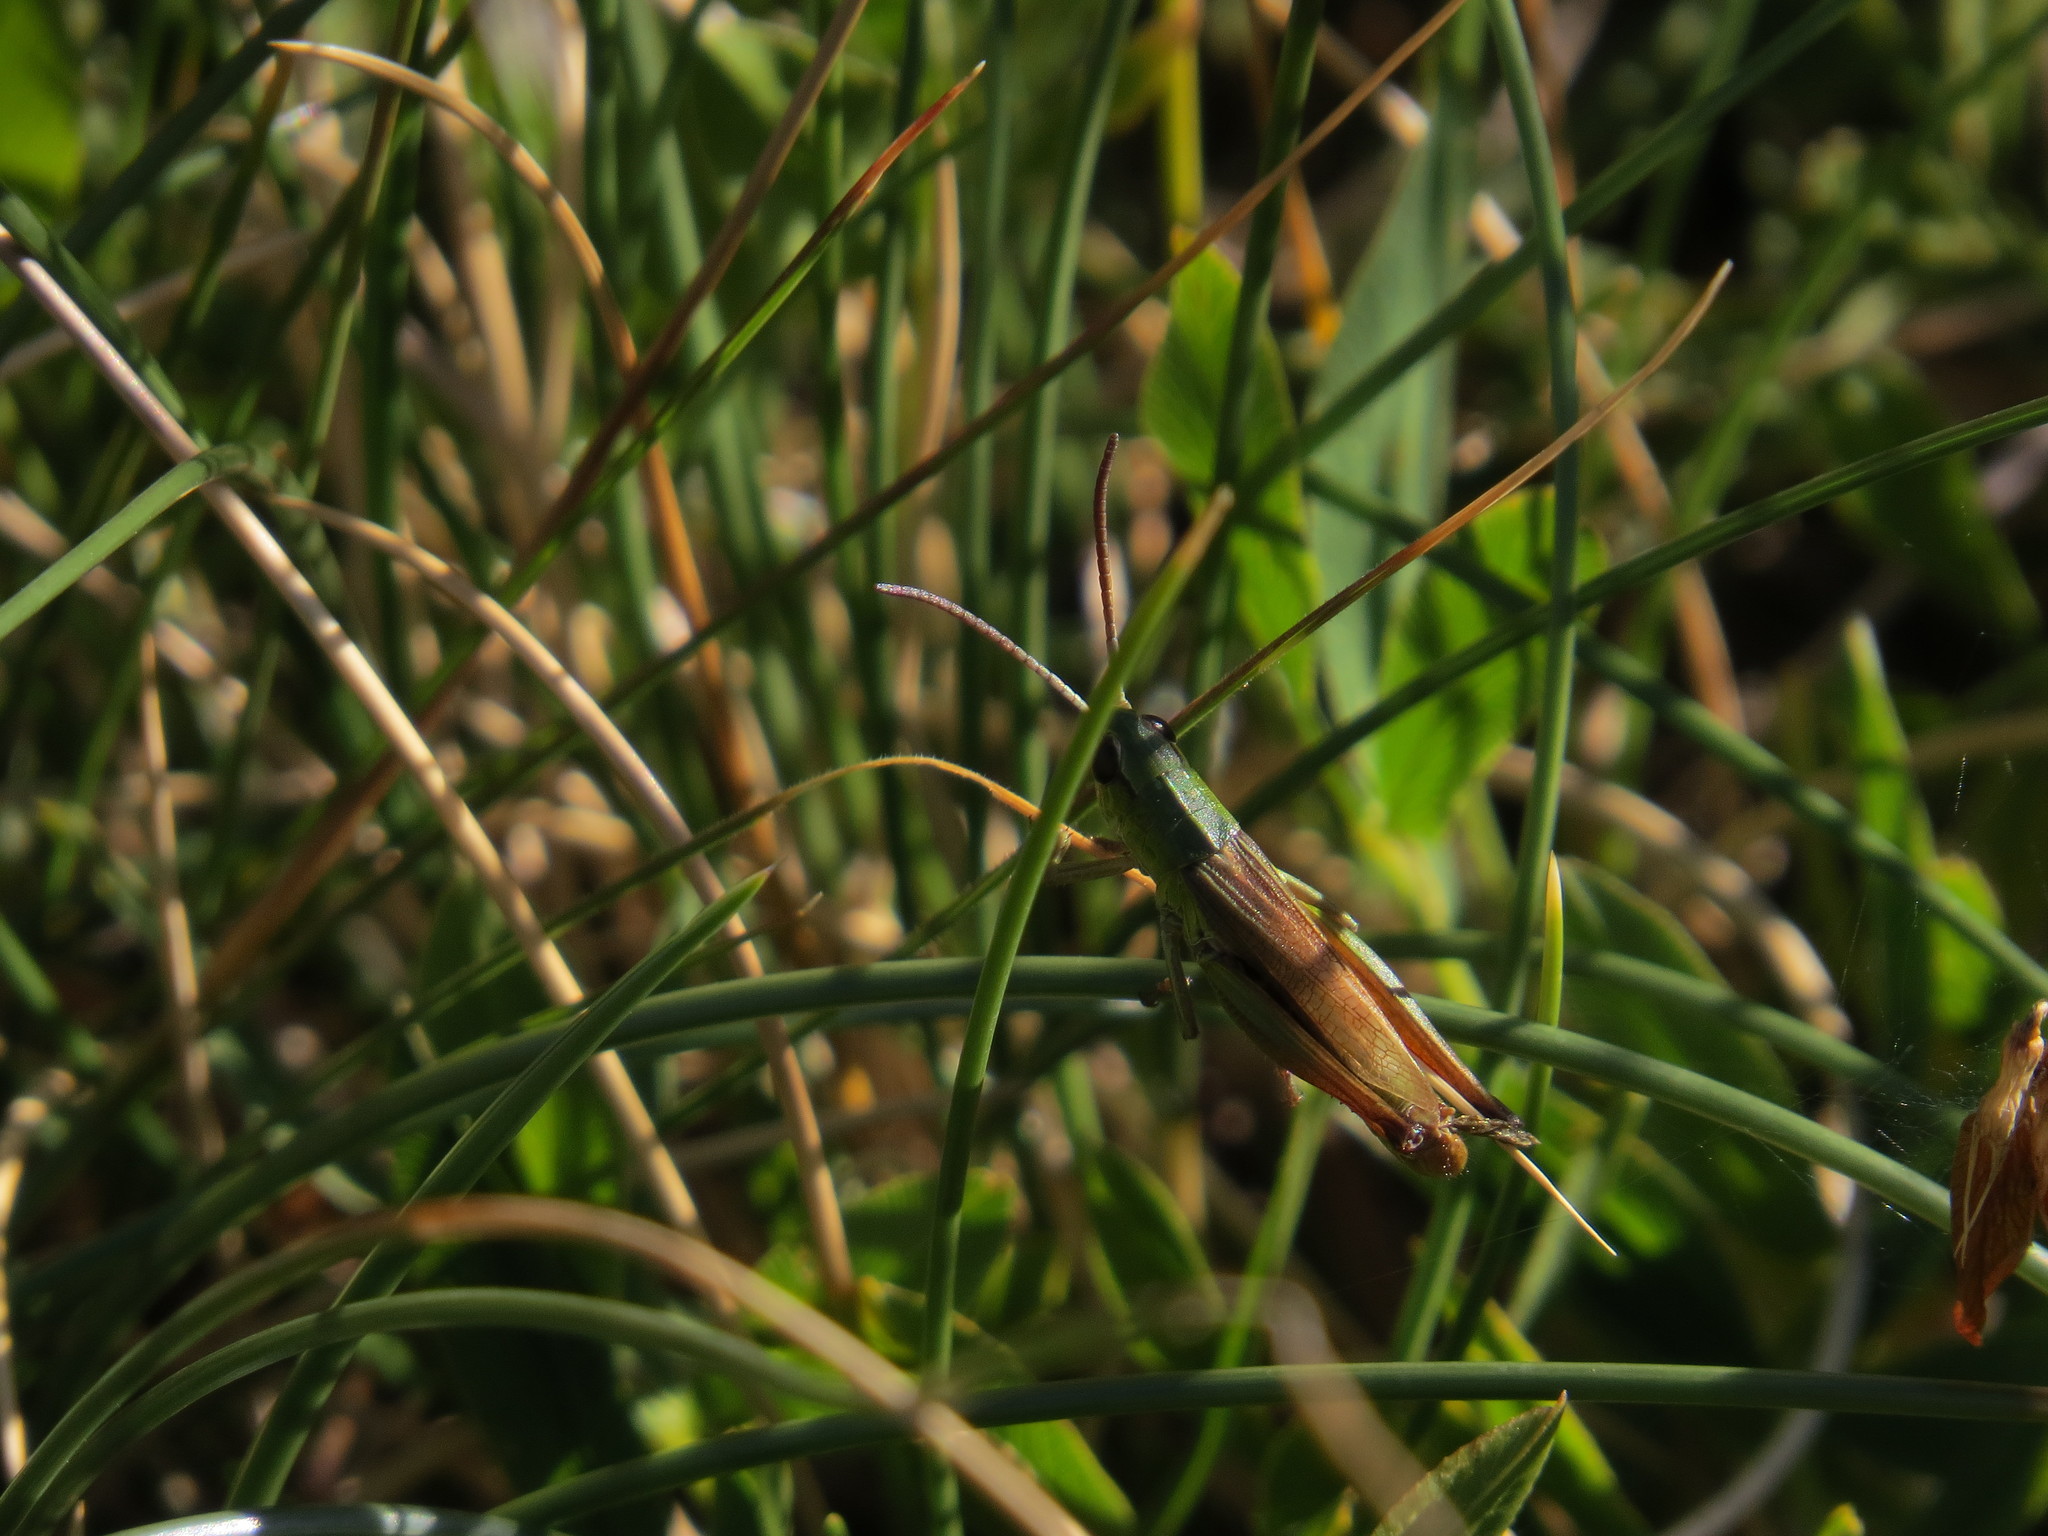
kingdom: Animalia
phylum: Arthropoda
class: Insecta
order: Orthoptera
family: Acrididae
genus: Pseudochorthippus
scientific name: Pseudochorthippus parallelus
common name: Meadow grasshopper
